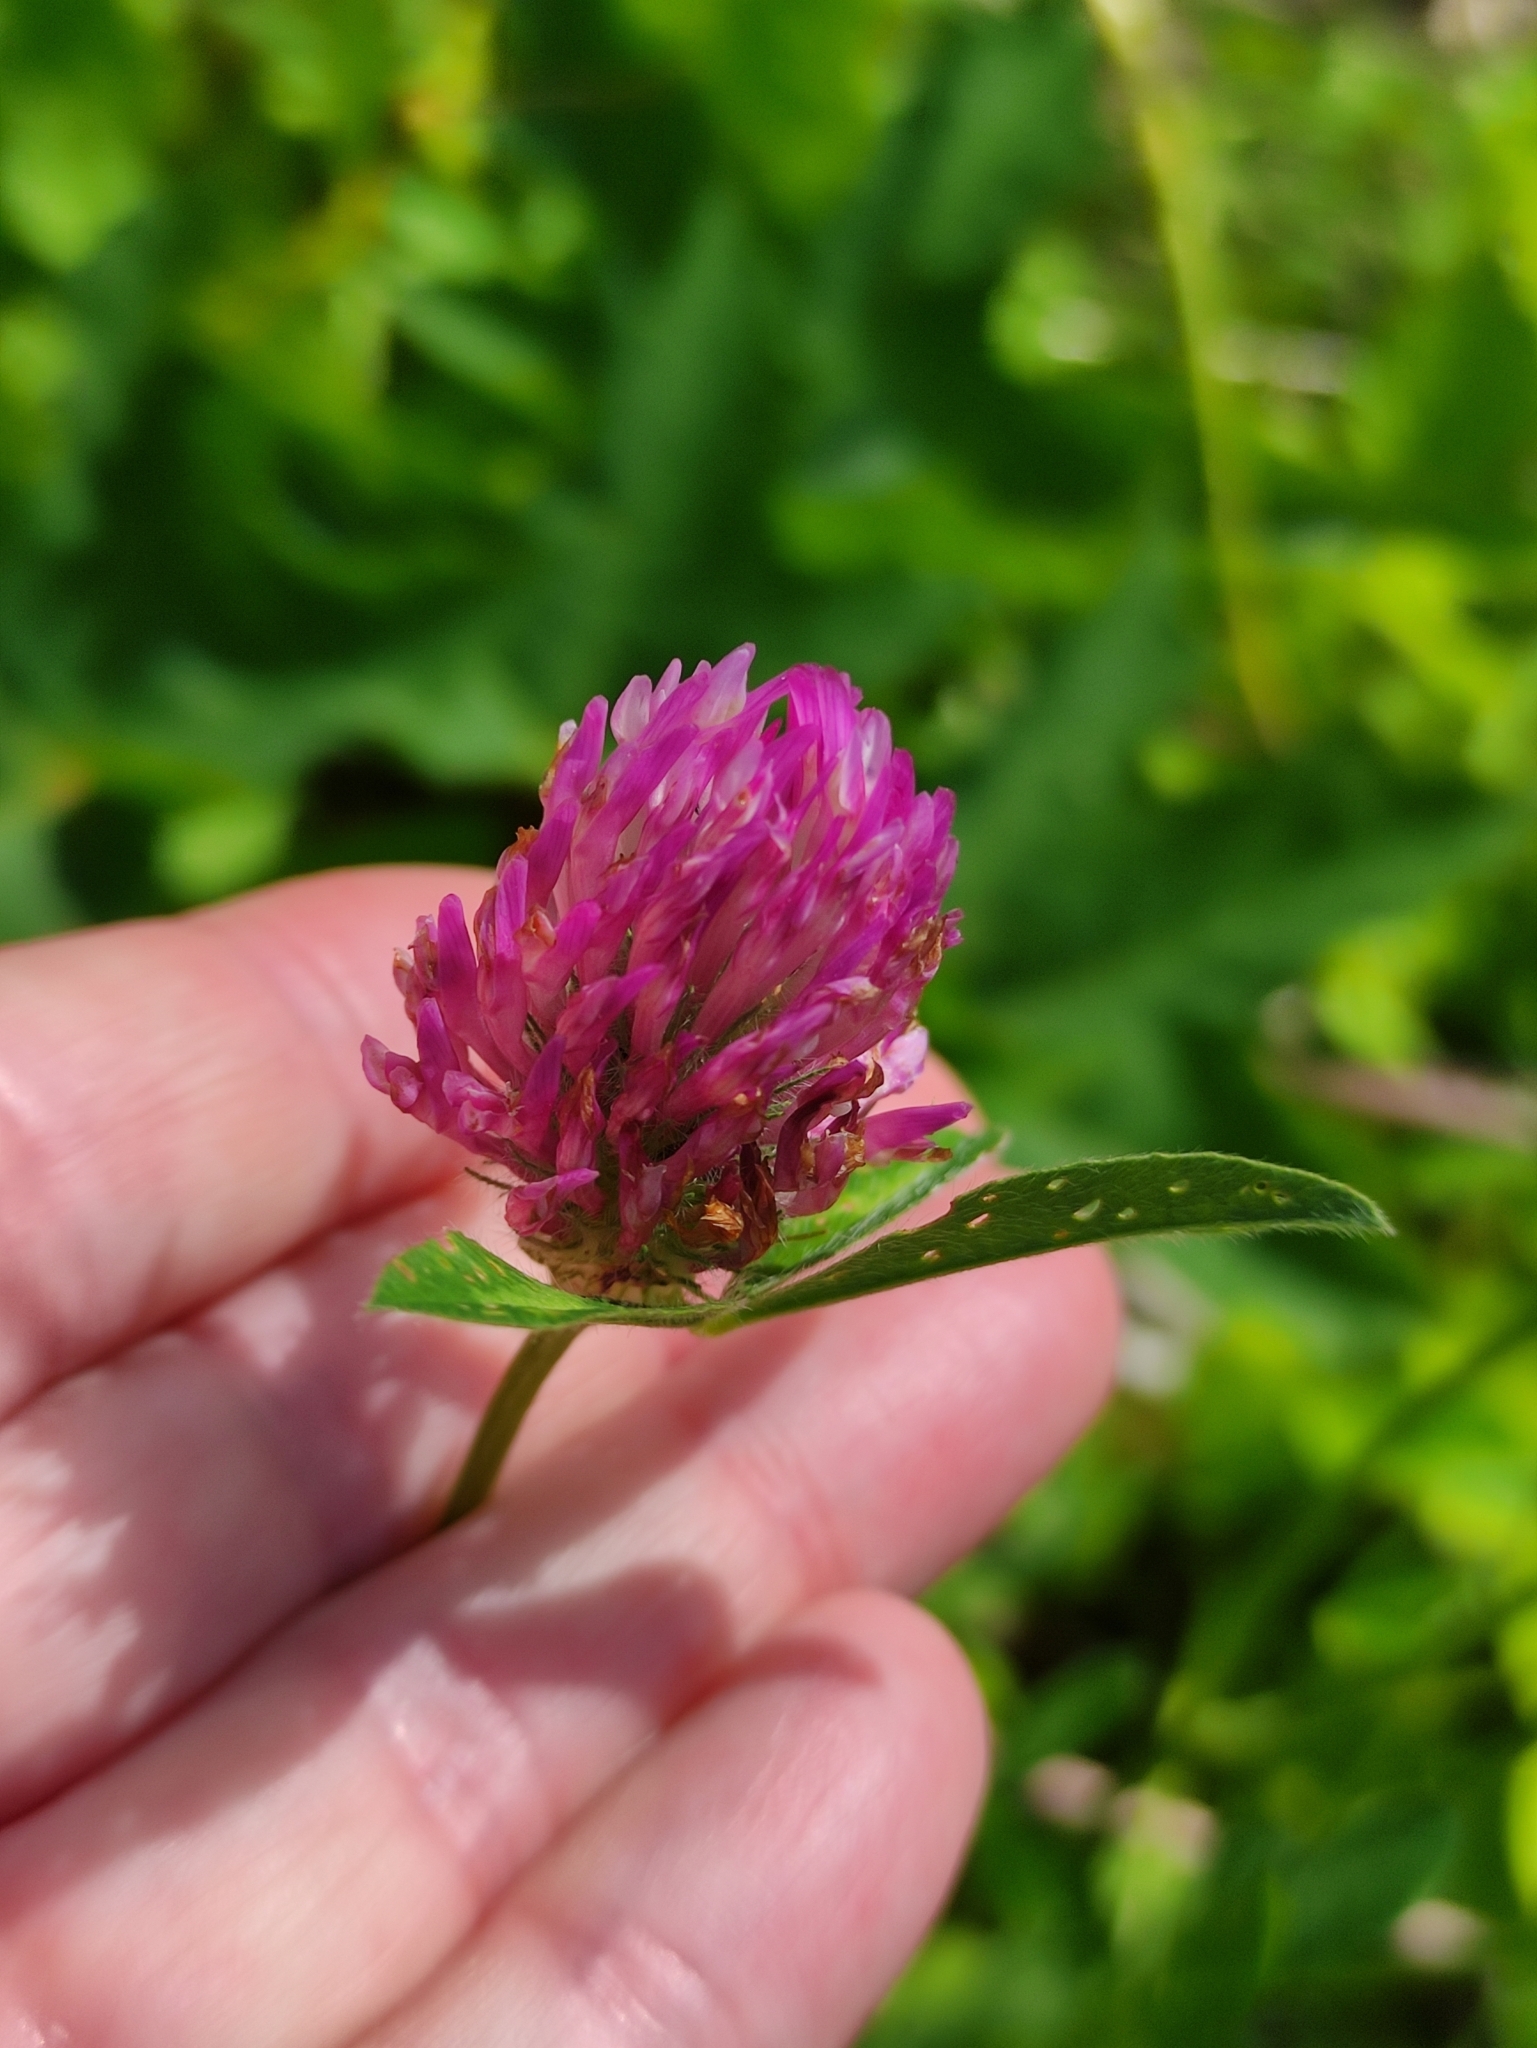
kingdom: Plantae
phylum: Tracheophyta
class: Magnoliopsida
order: Fabales
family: Fabaceae
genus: Trifolium
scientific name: Trifolium pratense
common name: Red clover
